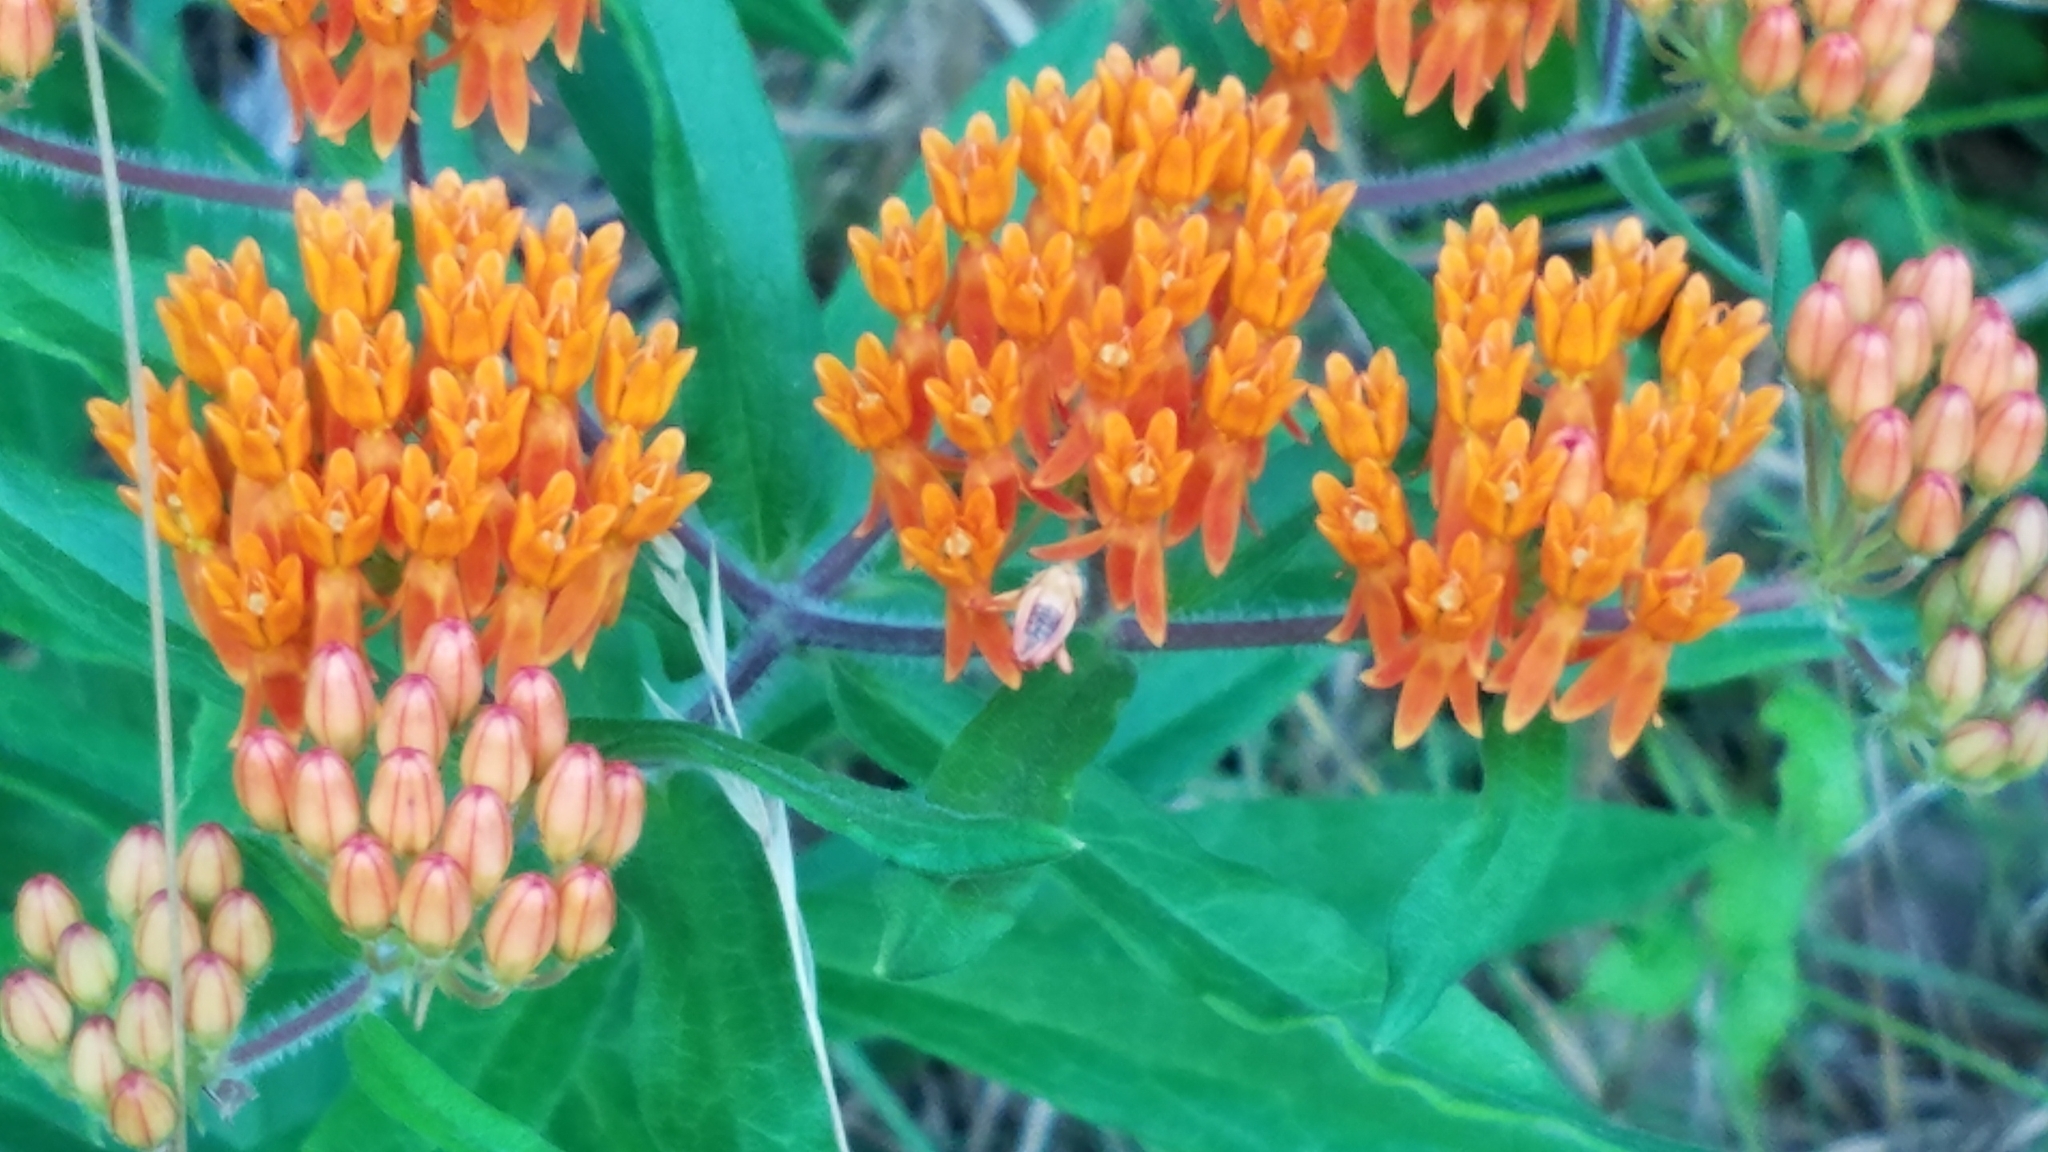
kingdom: Plantae
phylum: Tracheophyta
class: Magnoliopsida
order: Gentianales
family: Apocynaceae
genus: Asclepias
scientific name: Asclepias tuberosa
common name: Butterfly milkweed
